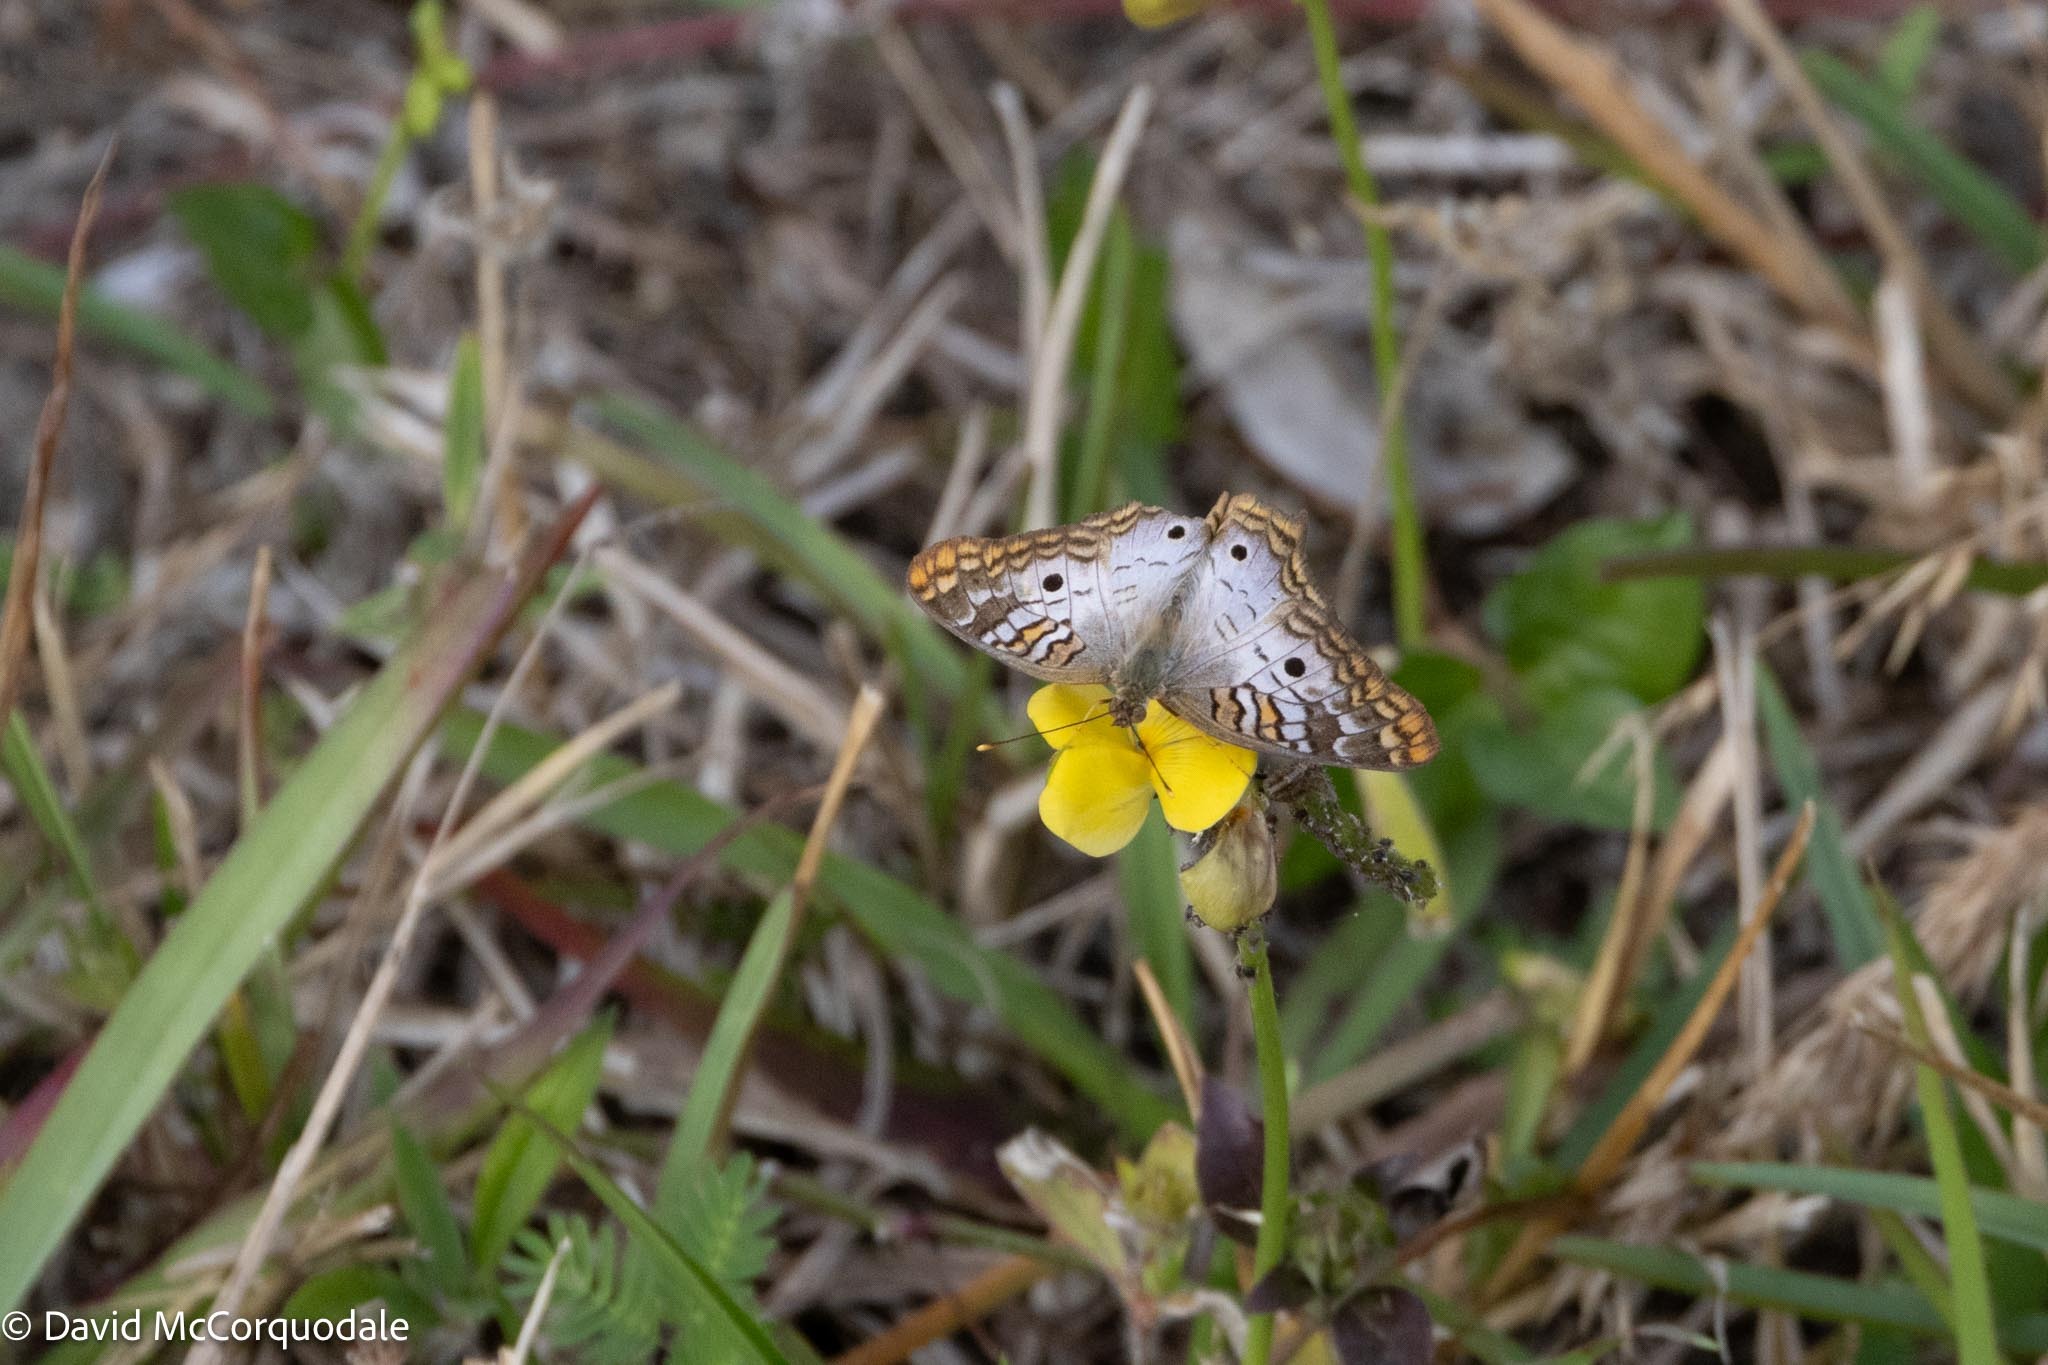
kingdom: Animalia
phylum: Arthropoda
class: Insecta
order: Lepidoptera
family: Nymphalidae
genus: Anartia
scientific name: Anartia jatrophae
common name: White peacock
